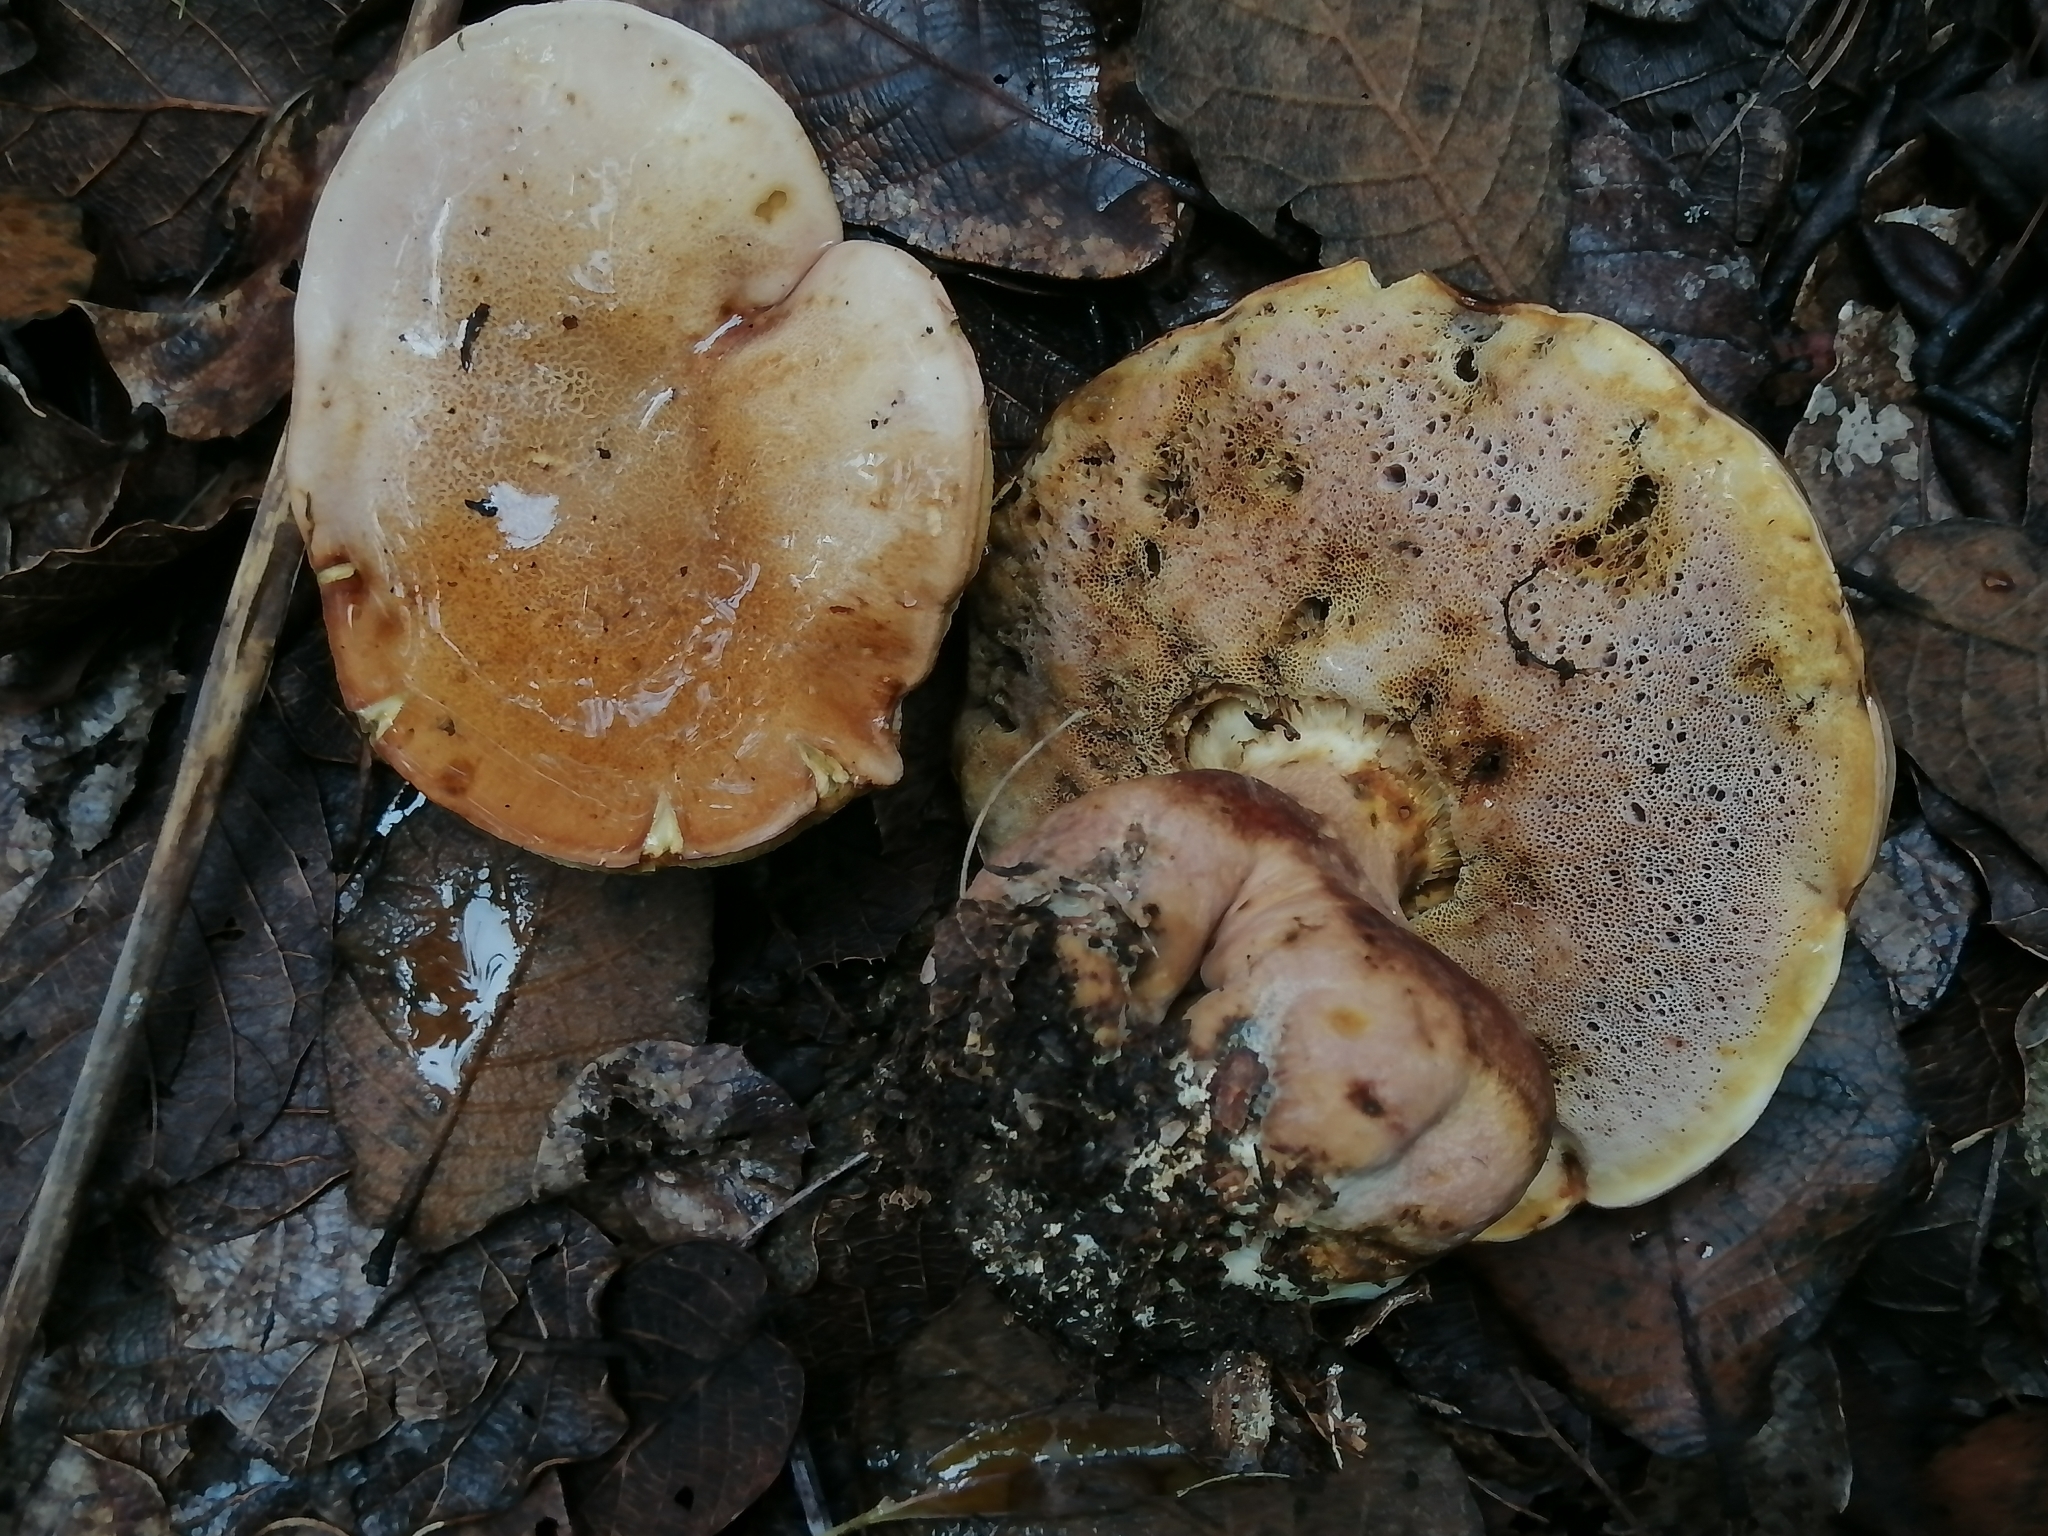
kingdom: Fungi
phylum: Basidiomycota
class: Agaricomycetes
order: Boletales
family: Boletaceae
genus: Fistulinella
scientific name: Fistulinella wolfeana
